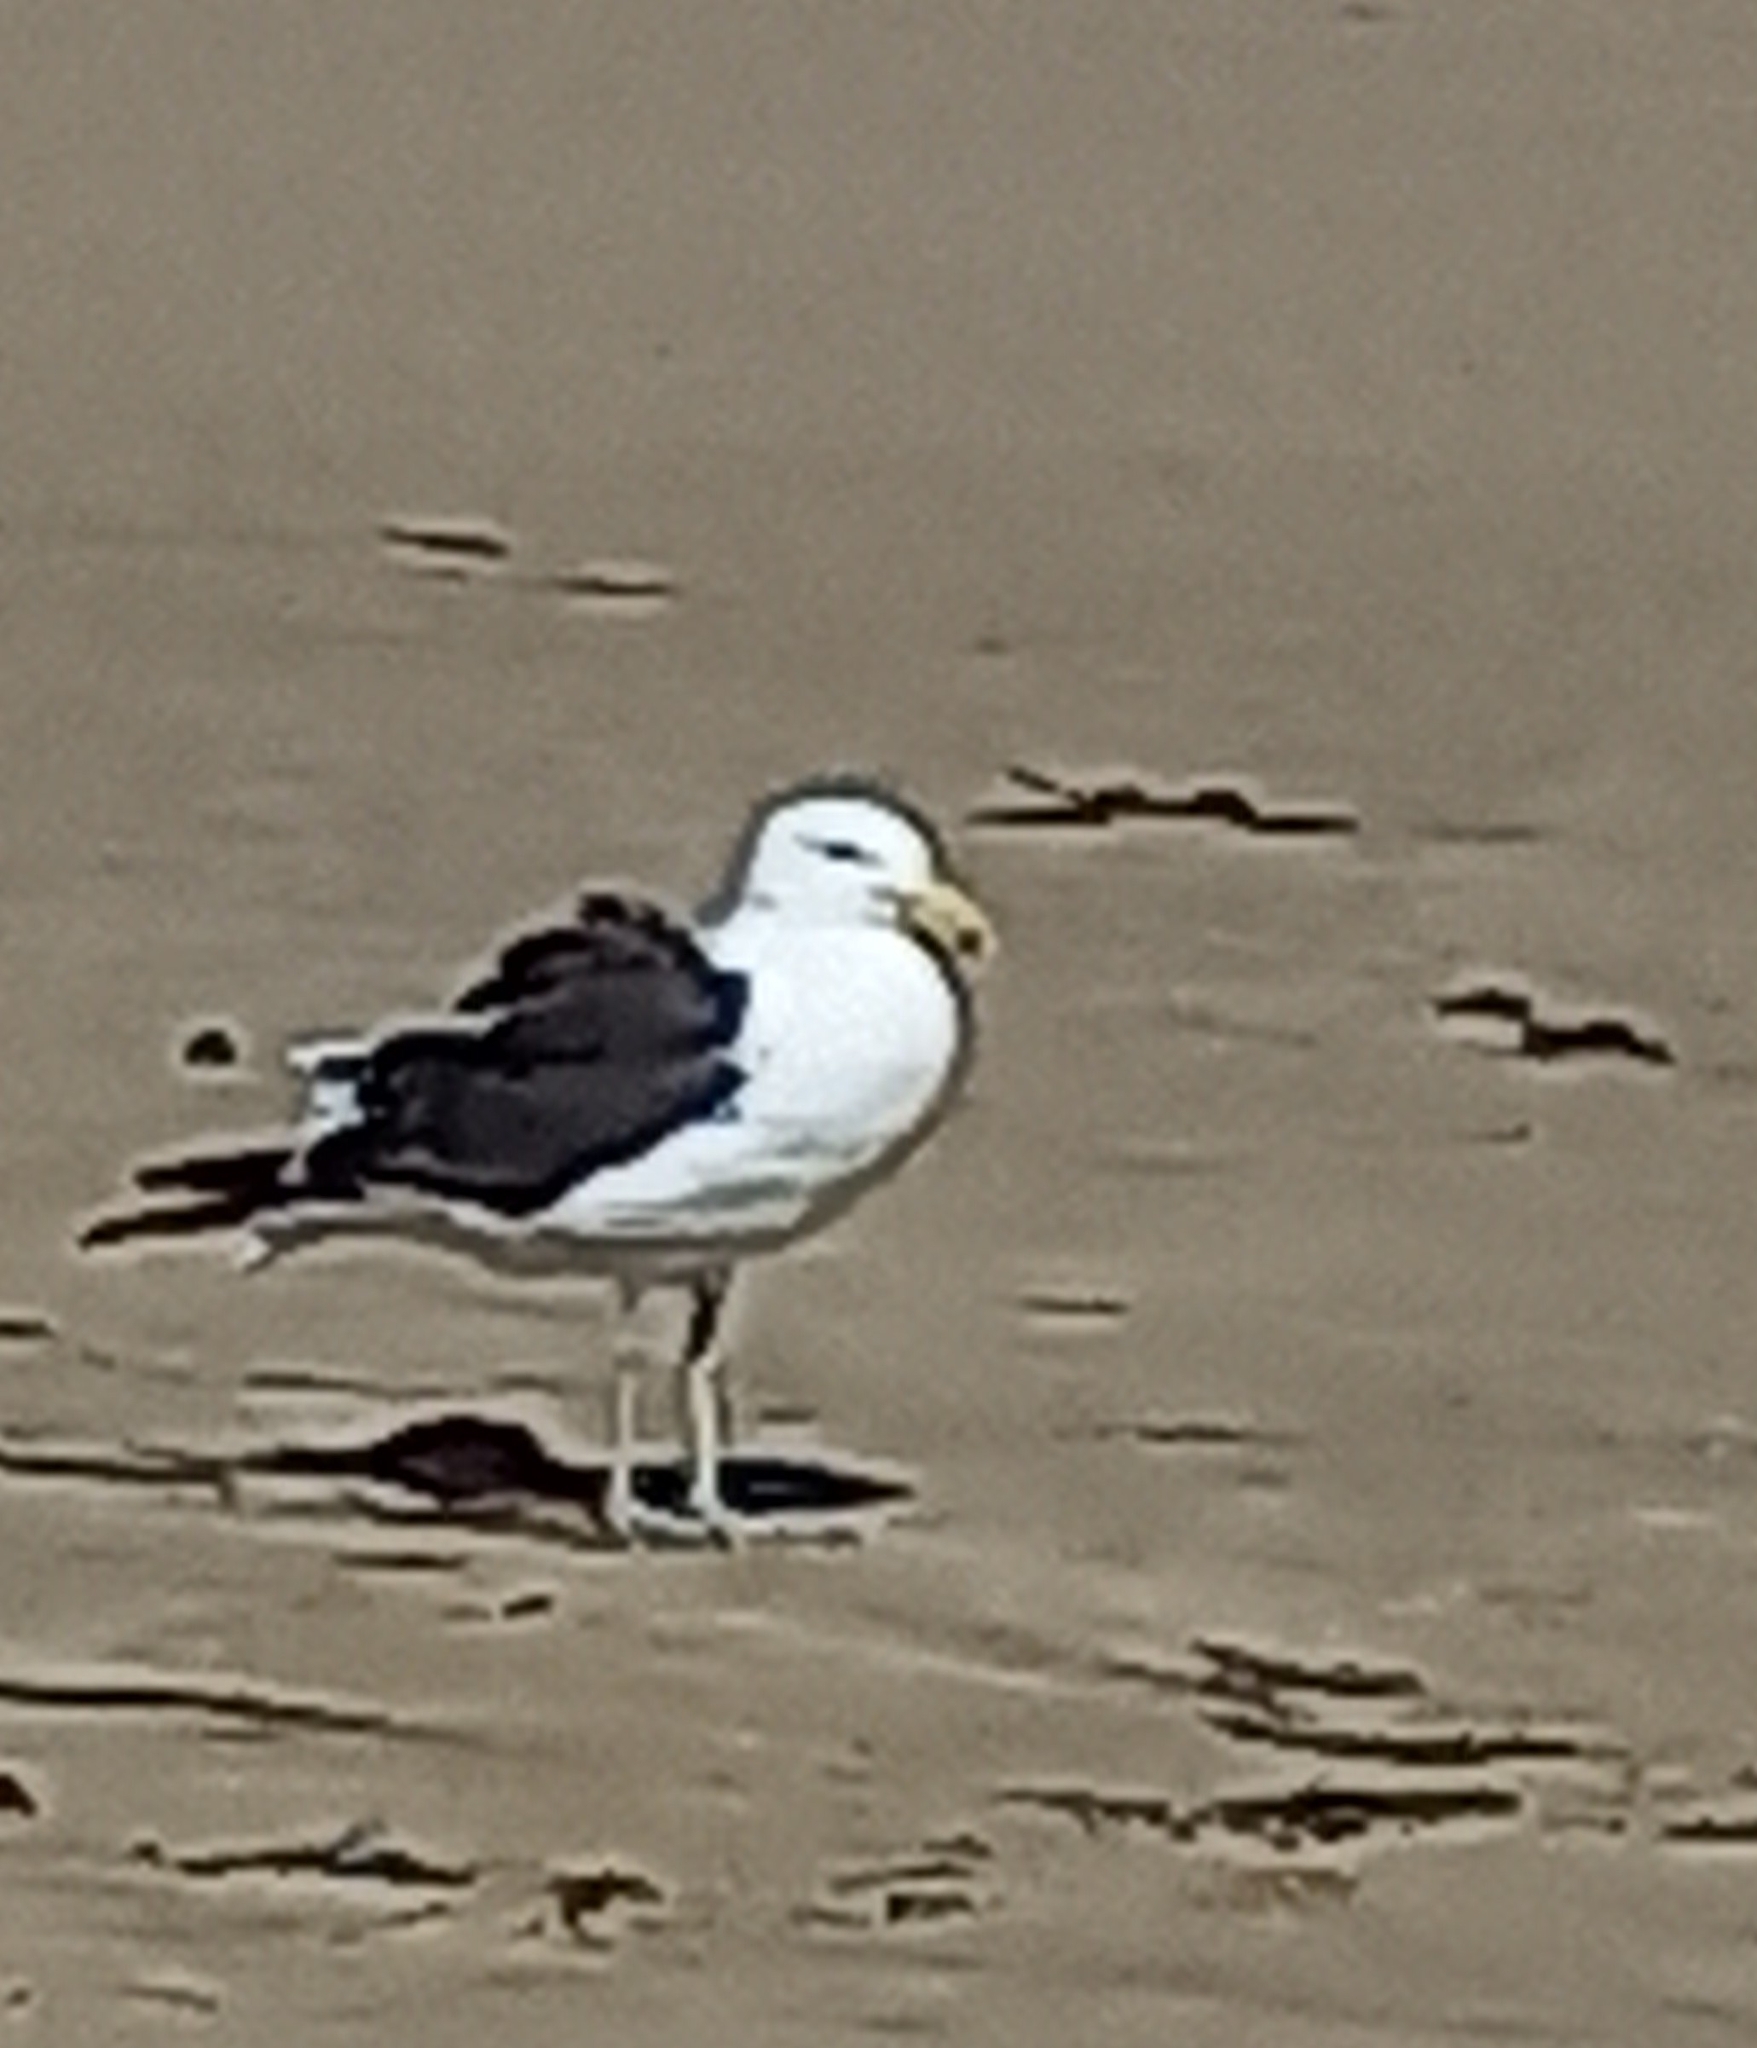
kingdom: Animalia
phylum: Chordata
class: Aves
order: Charadriiformes
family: Laridae
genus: Larus
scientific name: Larus dominicanus
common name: Kelp gull
